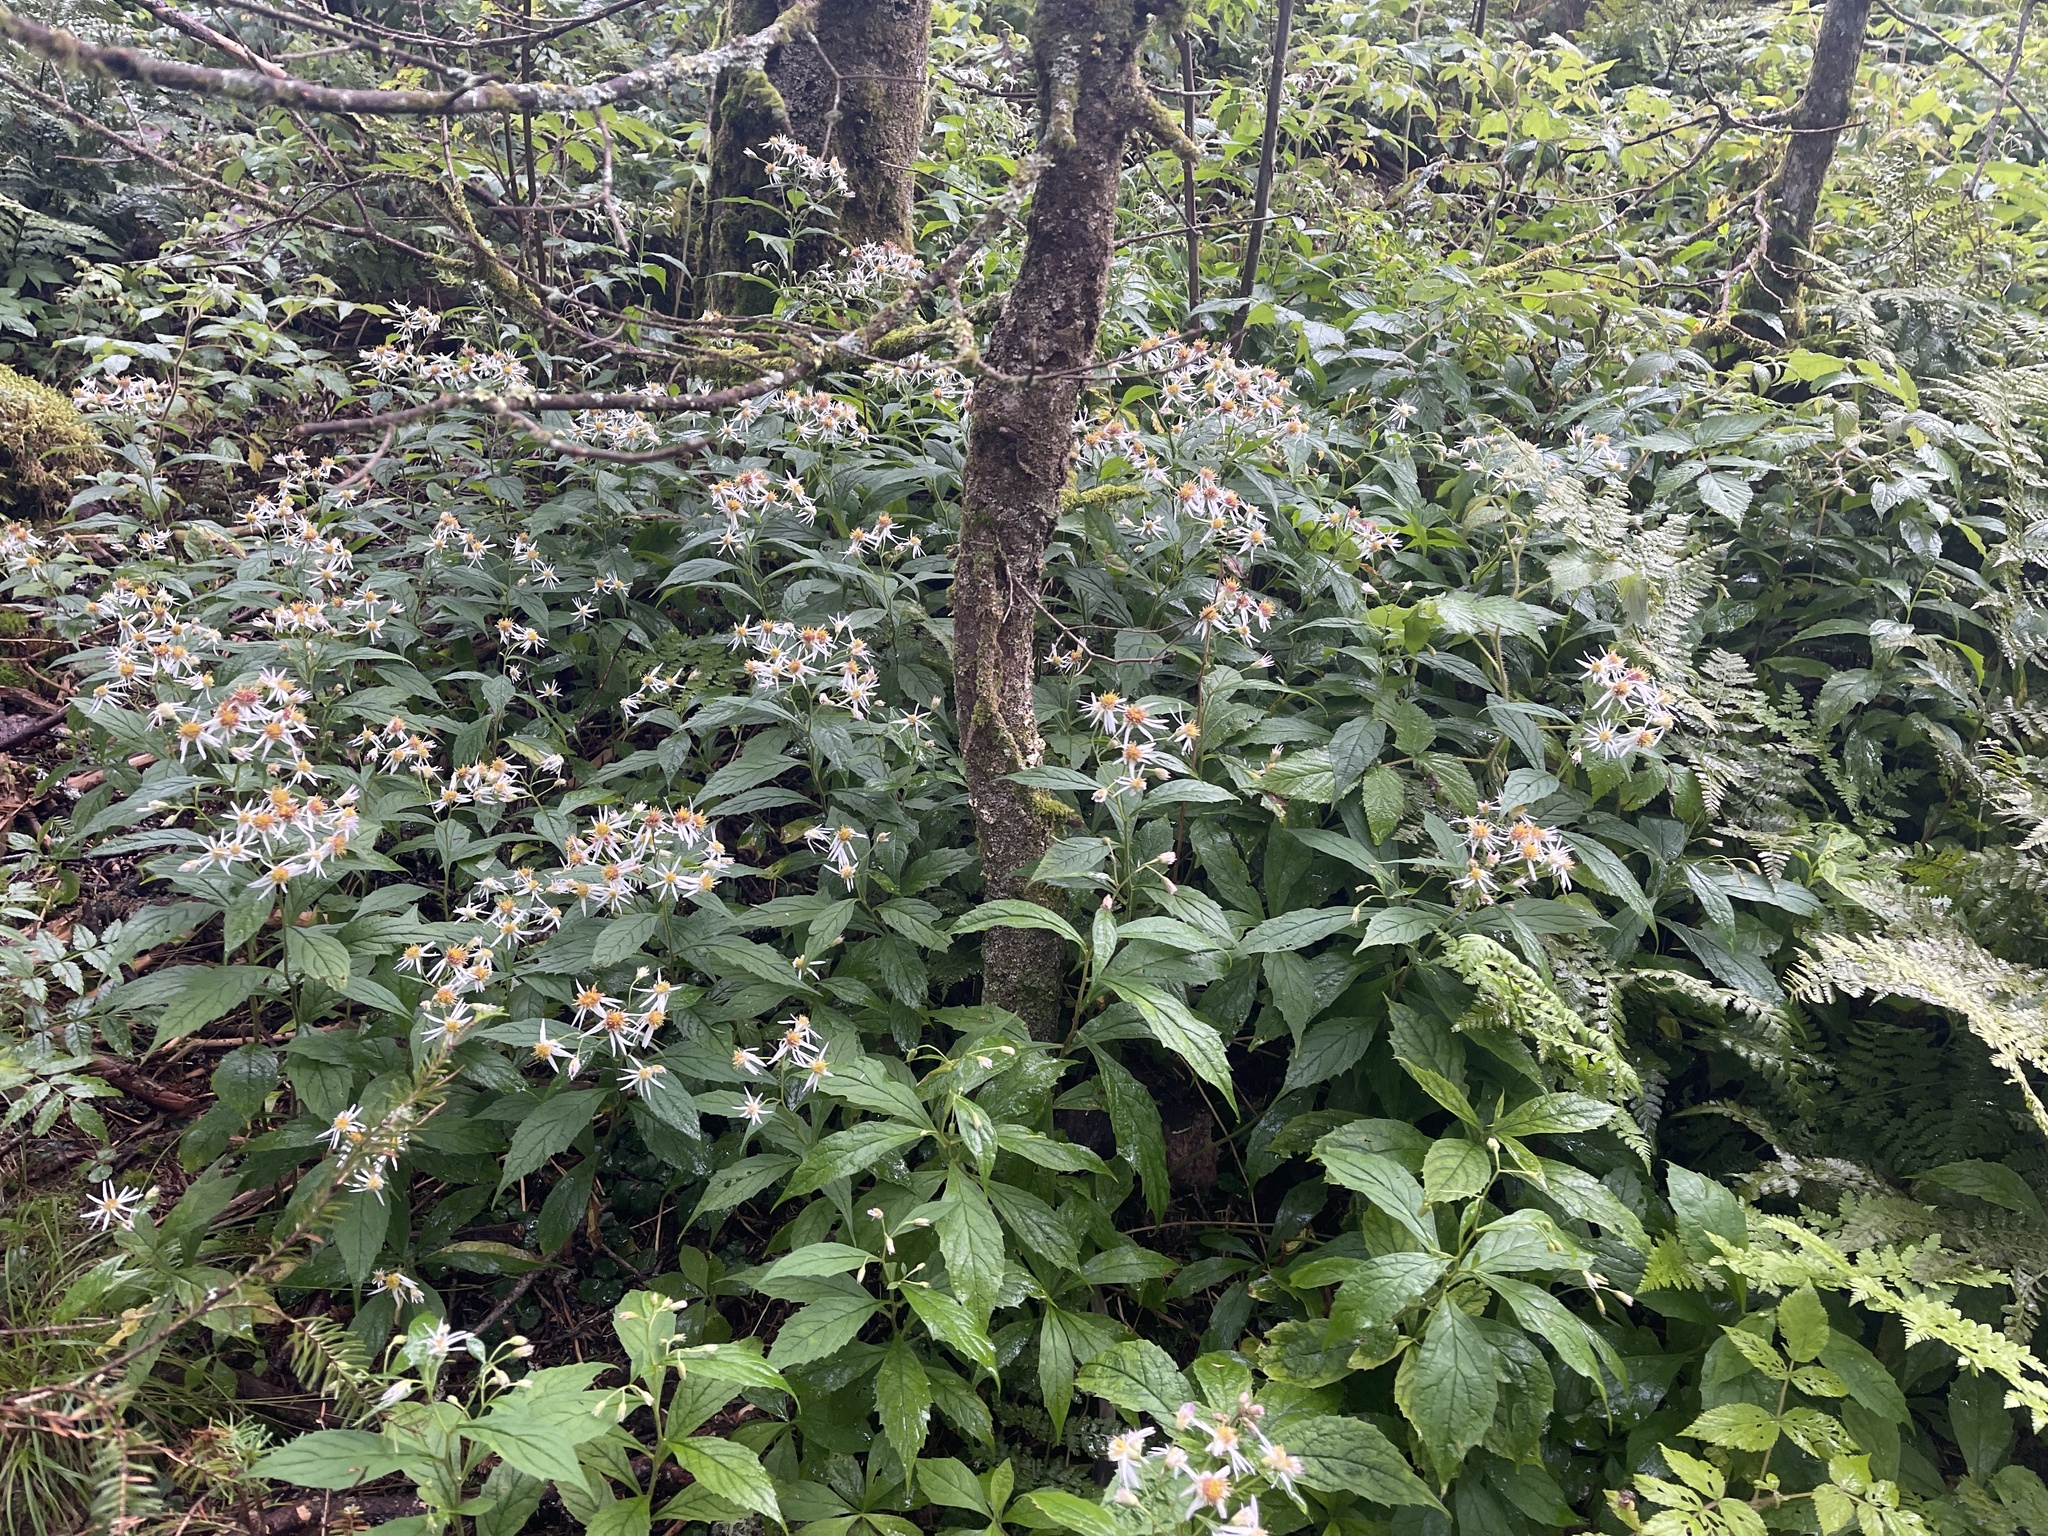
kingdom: Plantae
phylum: Tracheophyta
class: Magnoliopsida
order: Asterales
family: Asteraceae
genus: Oclemena
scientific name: Oclemena acuminata
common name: Mountain aster
